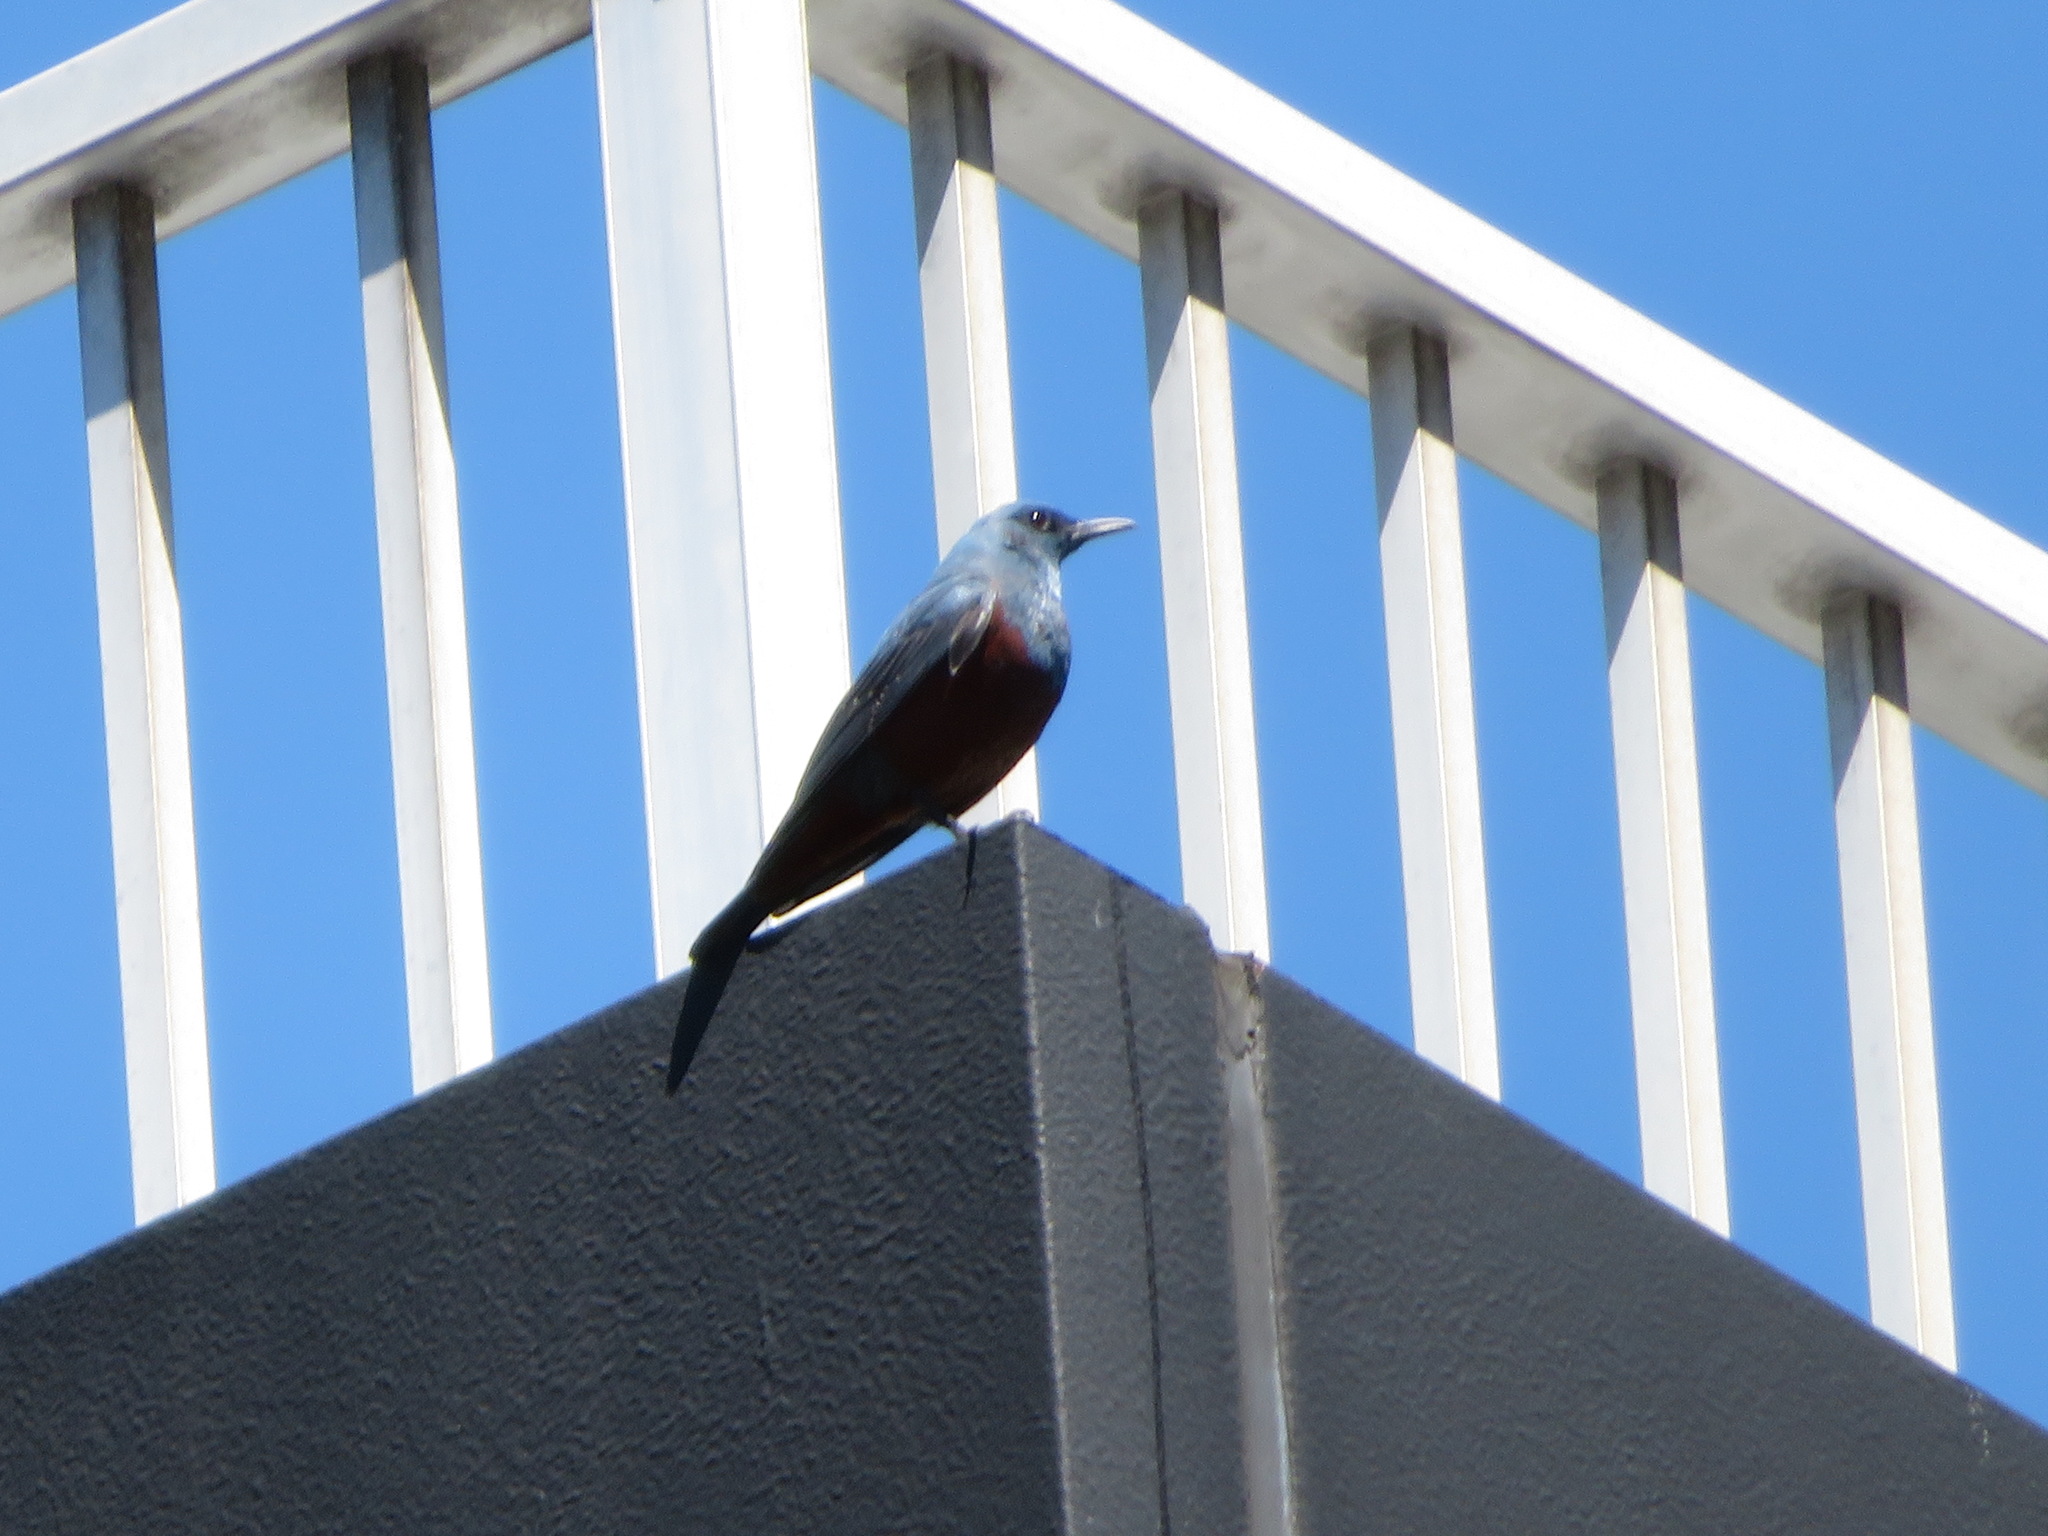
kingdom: Animalia
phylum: Chordata
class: Aves
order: Passeriformes
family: Muscicapidae
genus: Monticola
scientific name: Monticola solitarius
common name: Blue rock thrush
